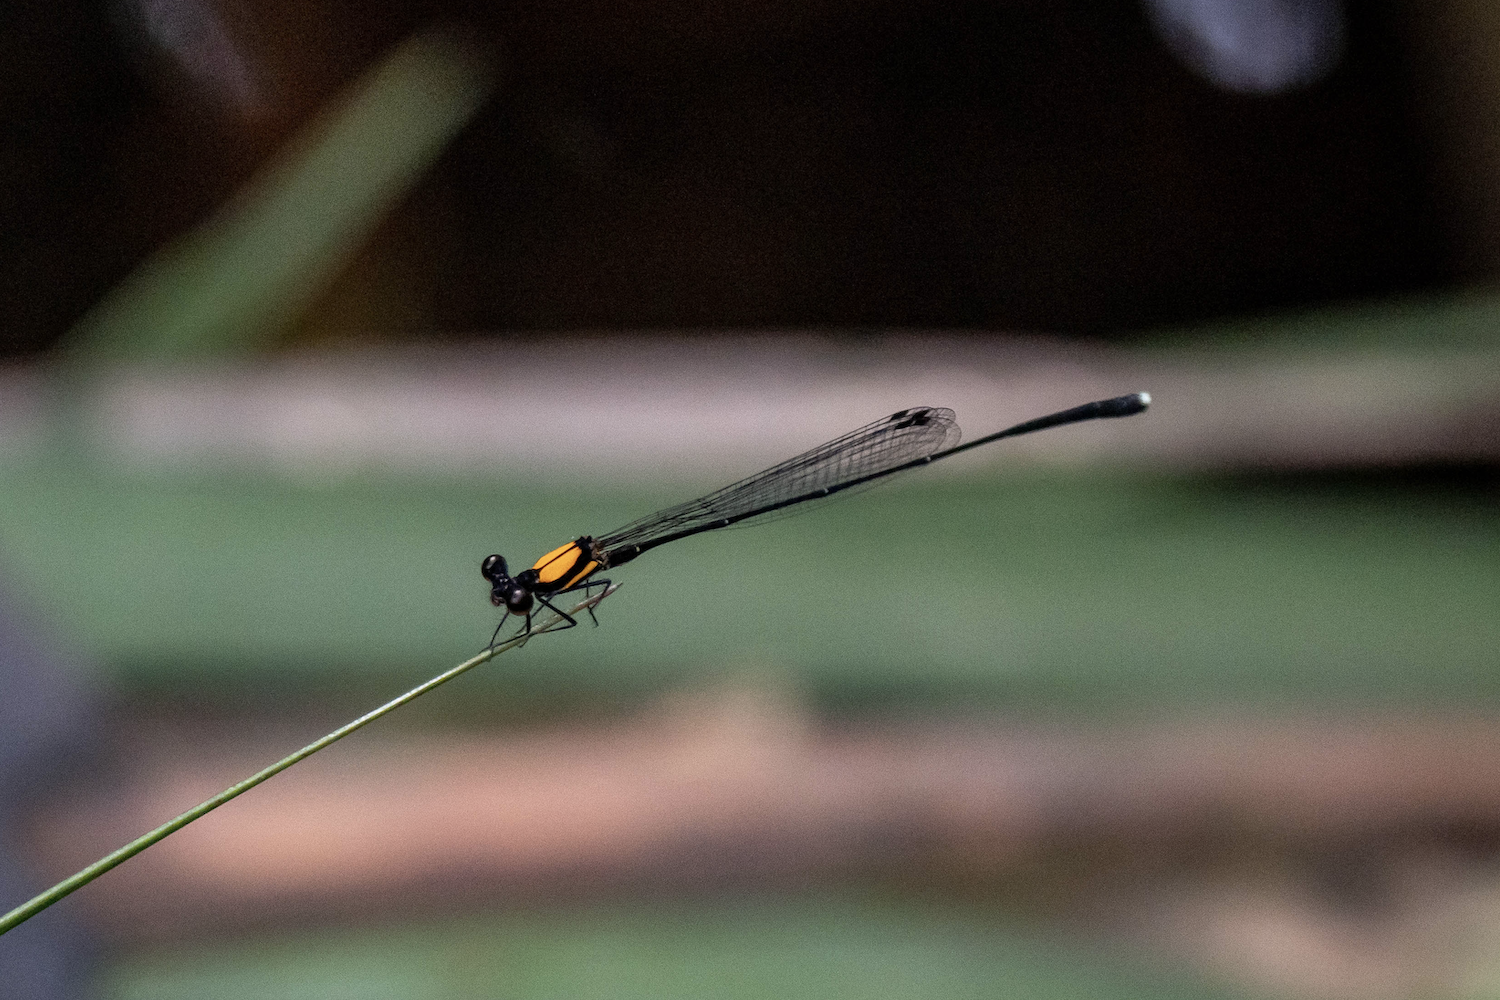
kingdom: Animalia
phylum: Arthropoda
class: Insecta
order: Odonata
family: Platycnemididae
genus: Prodasineura
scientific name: Prodasineura croconota
